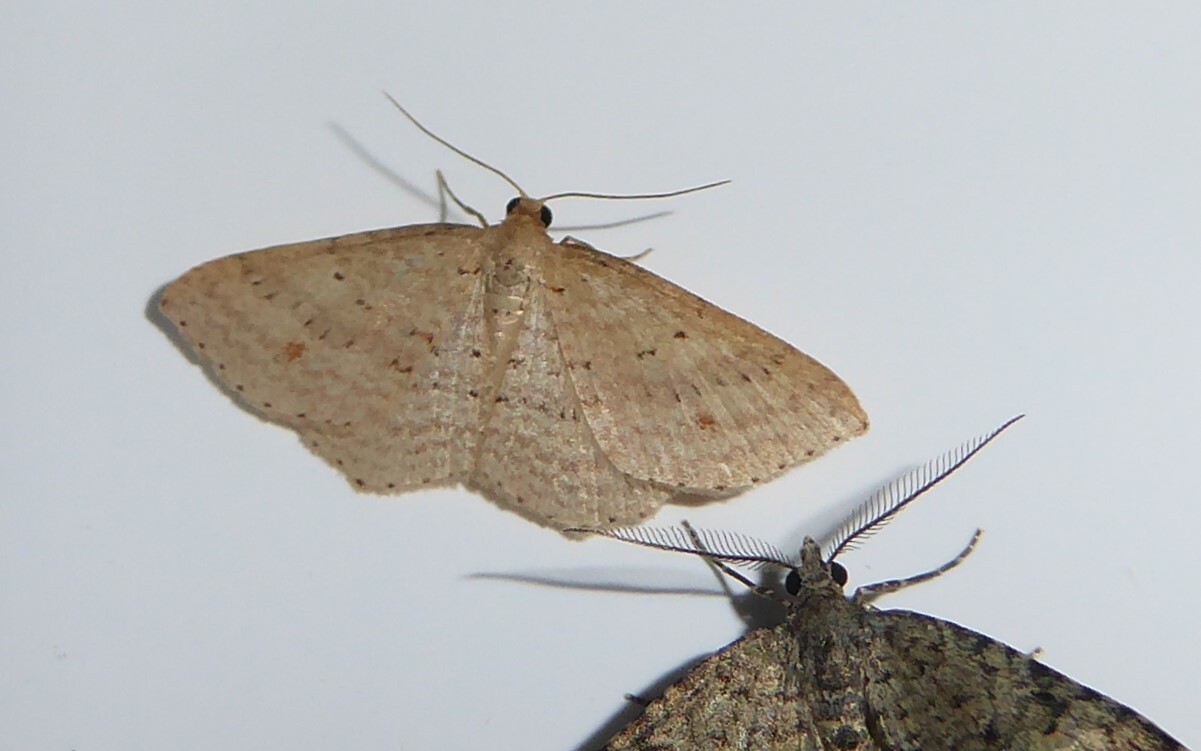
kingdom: Animalia
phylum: Arthropoda
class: Insecta
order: Lepidoptera
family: Geometridae
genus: Epicyme
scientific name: Epicyme rubropunctaria
